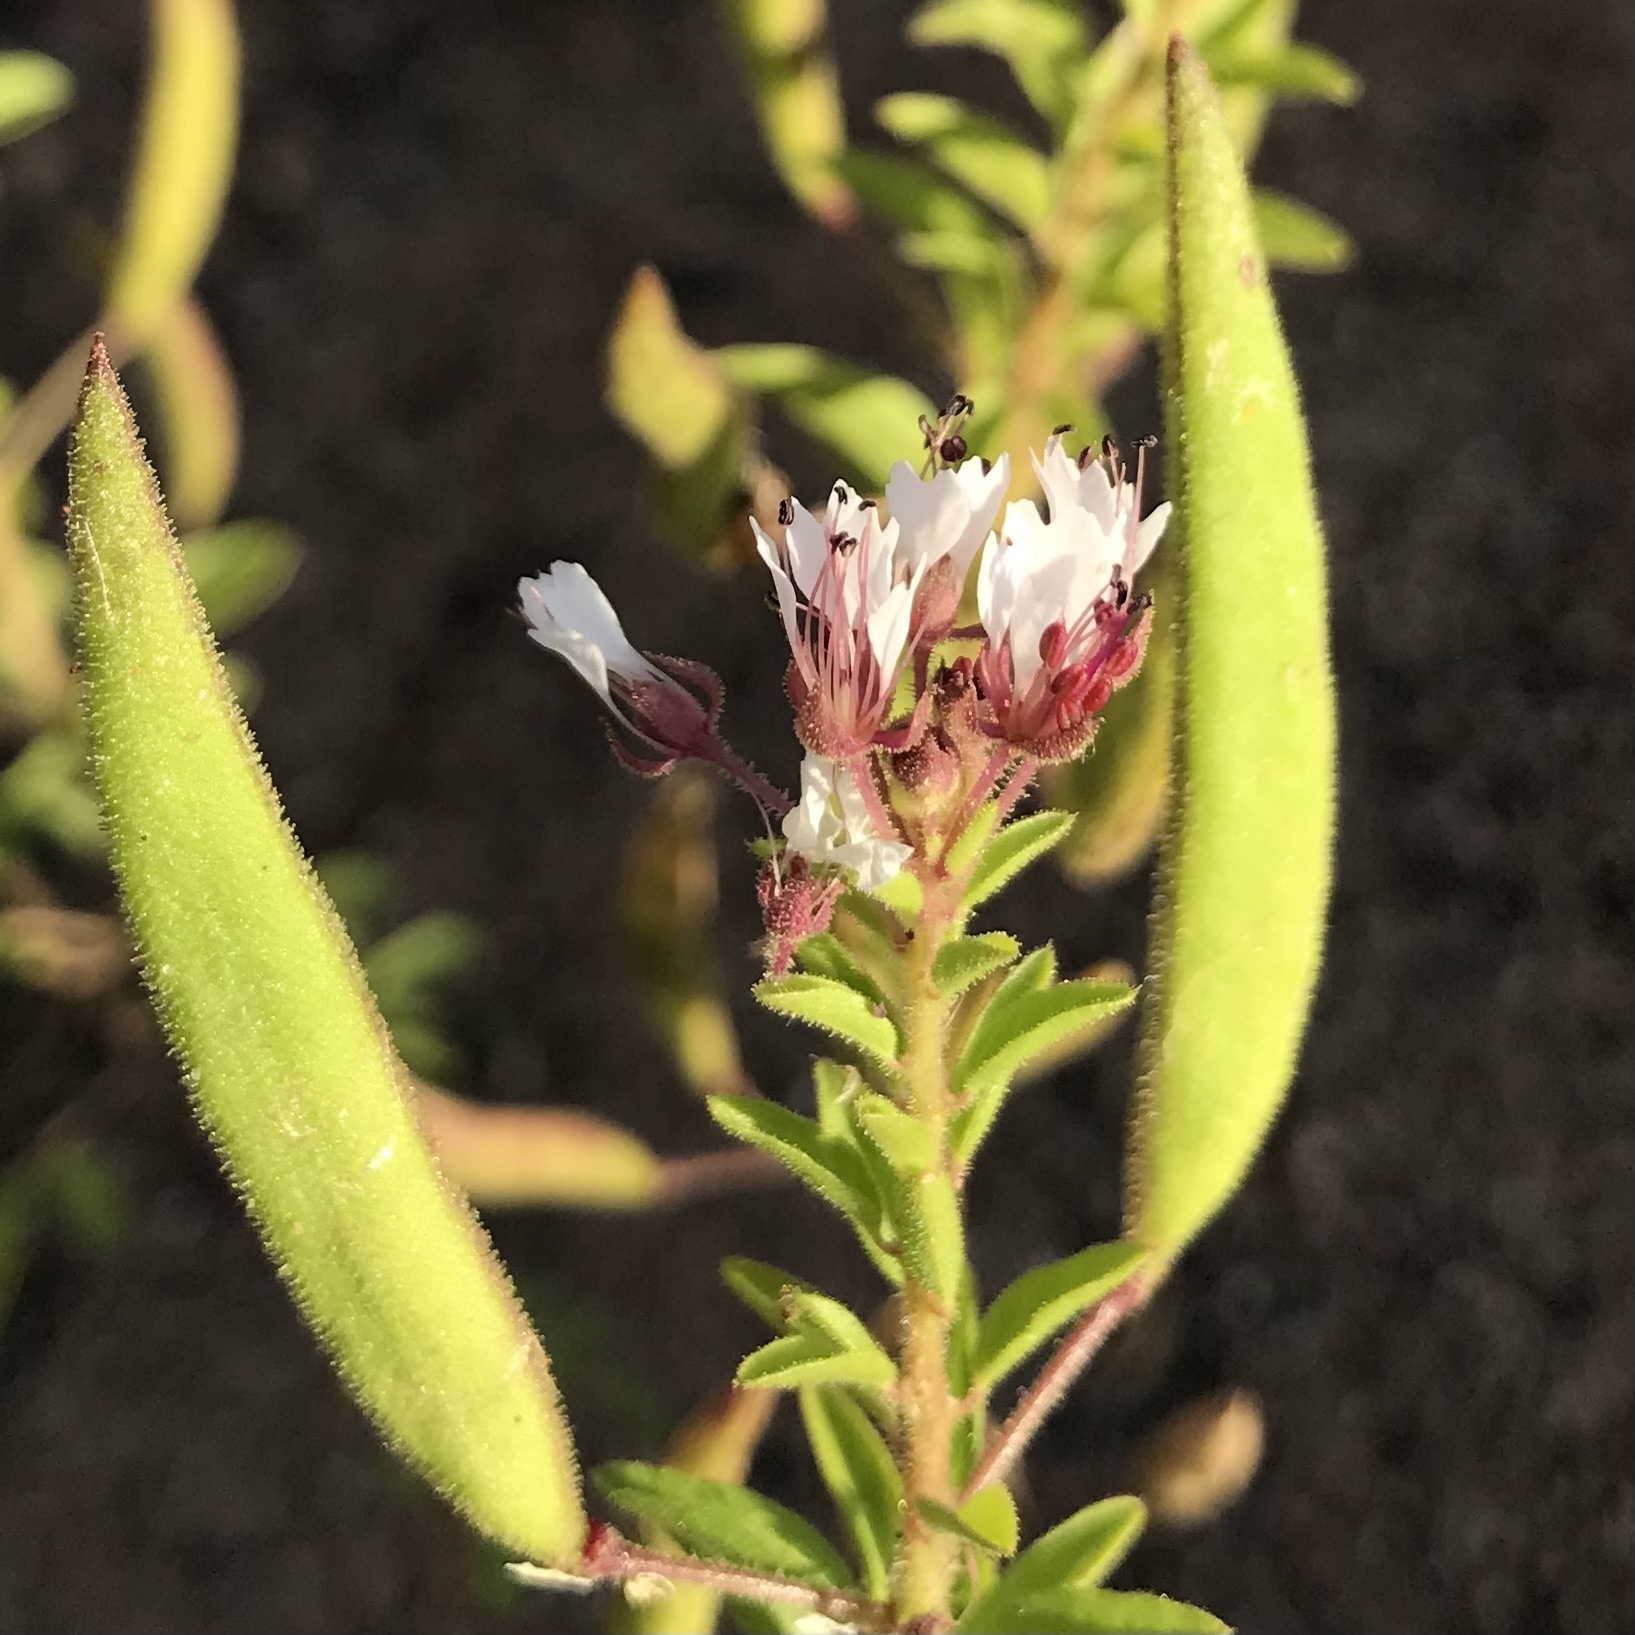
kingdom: Plantae
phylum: Tracheophyta
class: Magnoliopsida
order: Brassicales
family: Cleomaceae
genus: Polanisia
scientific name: Polanisia dodecandra
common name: Clammyweed
